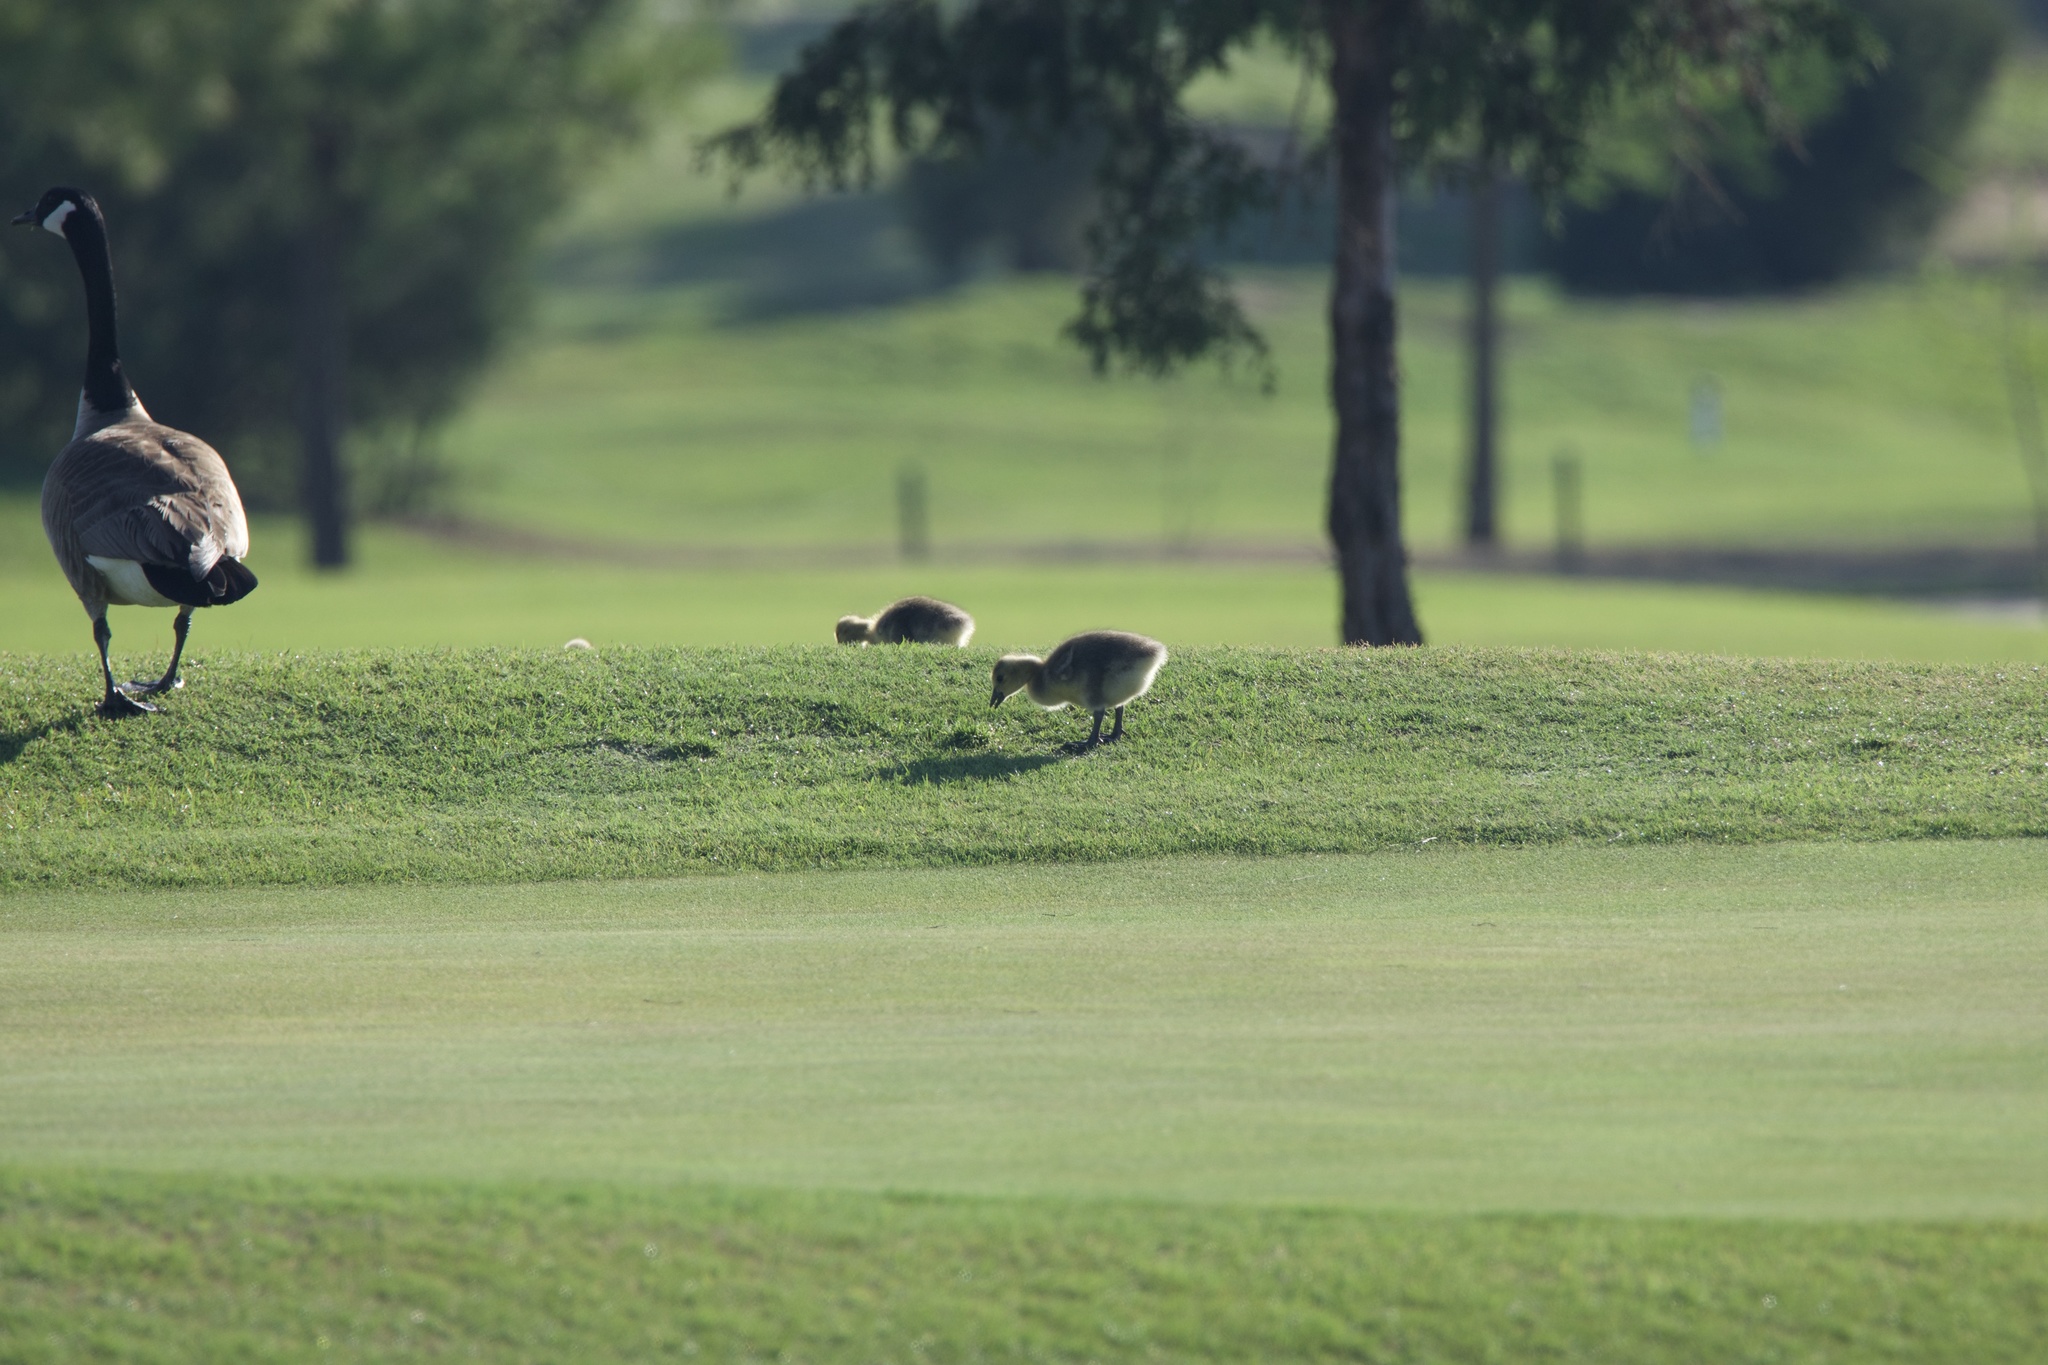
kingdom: Animalia
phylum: Chordata
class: Aves
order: Anseriformes
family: Anatidae
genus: Branta
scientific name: Branta canadensis
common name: Canada goose
